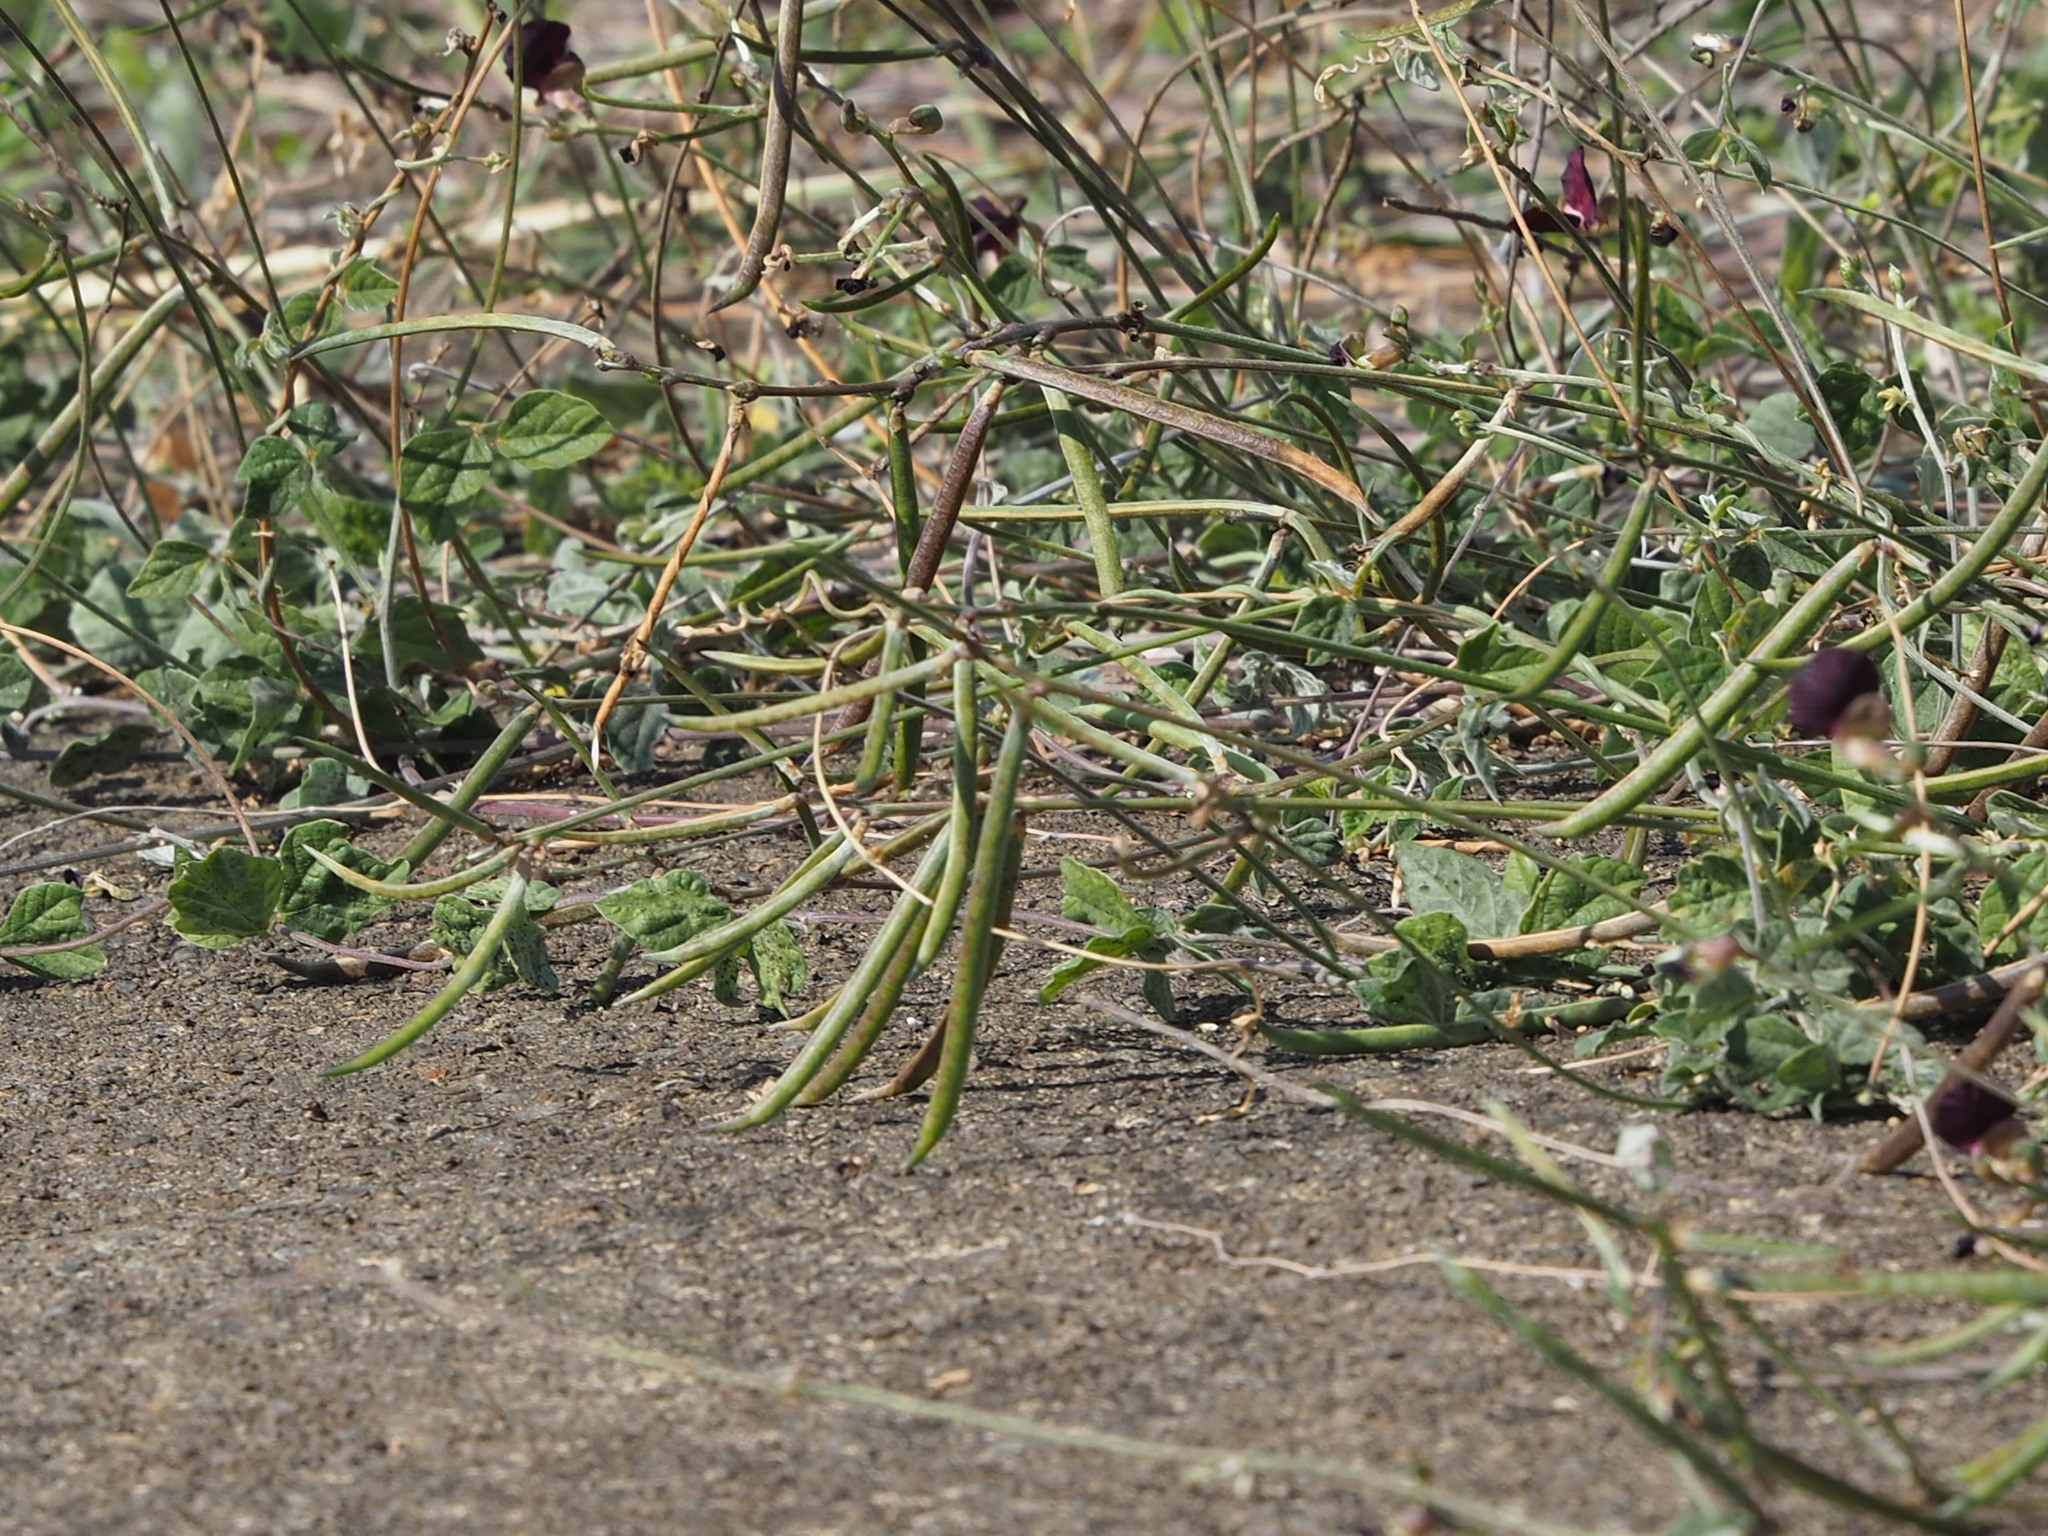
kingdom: Plantae
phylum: Tracheophyta
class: Magnoliopsida
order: Fabales
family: Fabaceae
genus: Macroptilium
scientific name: Macroptilium atropurpureum
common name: Purple bushbean
